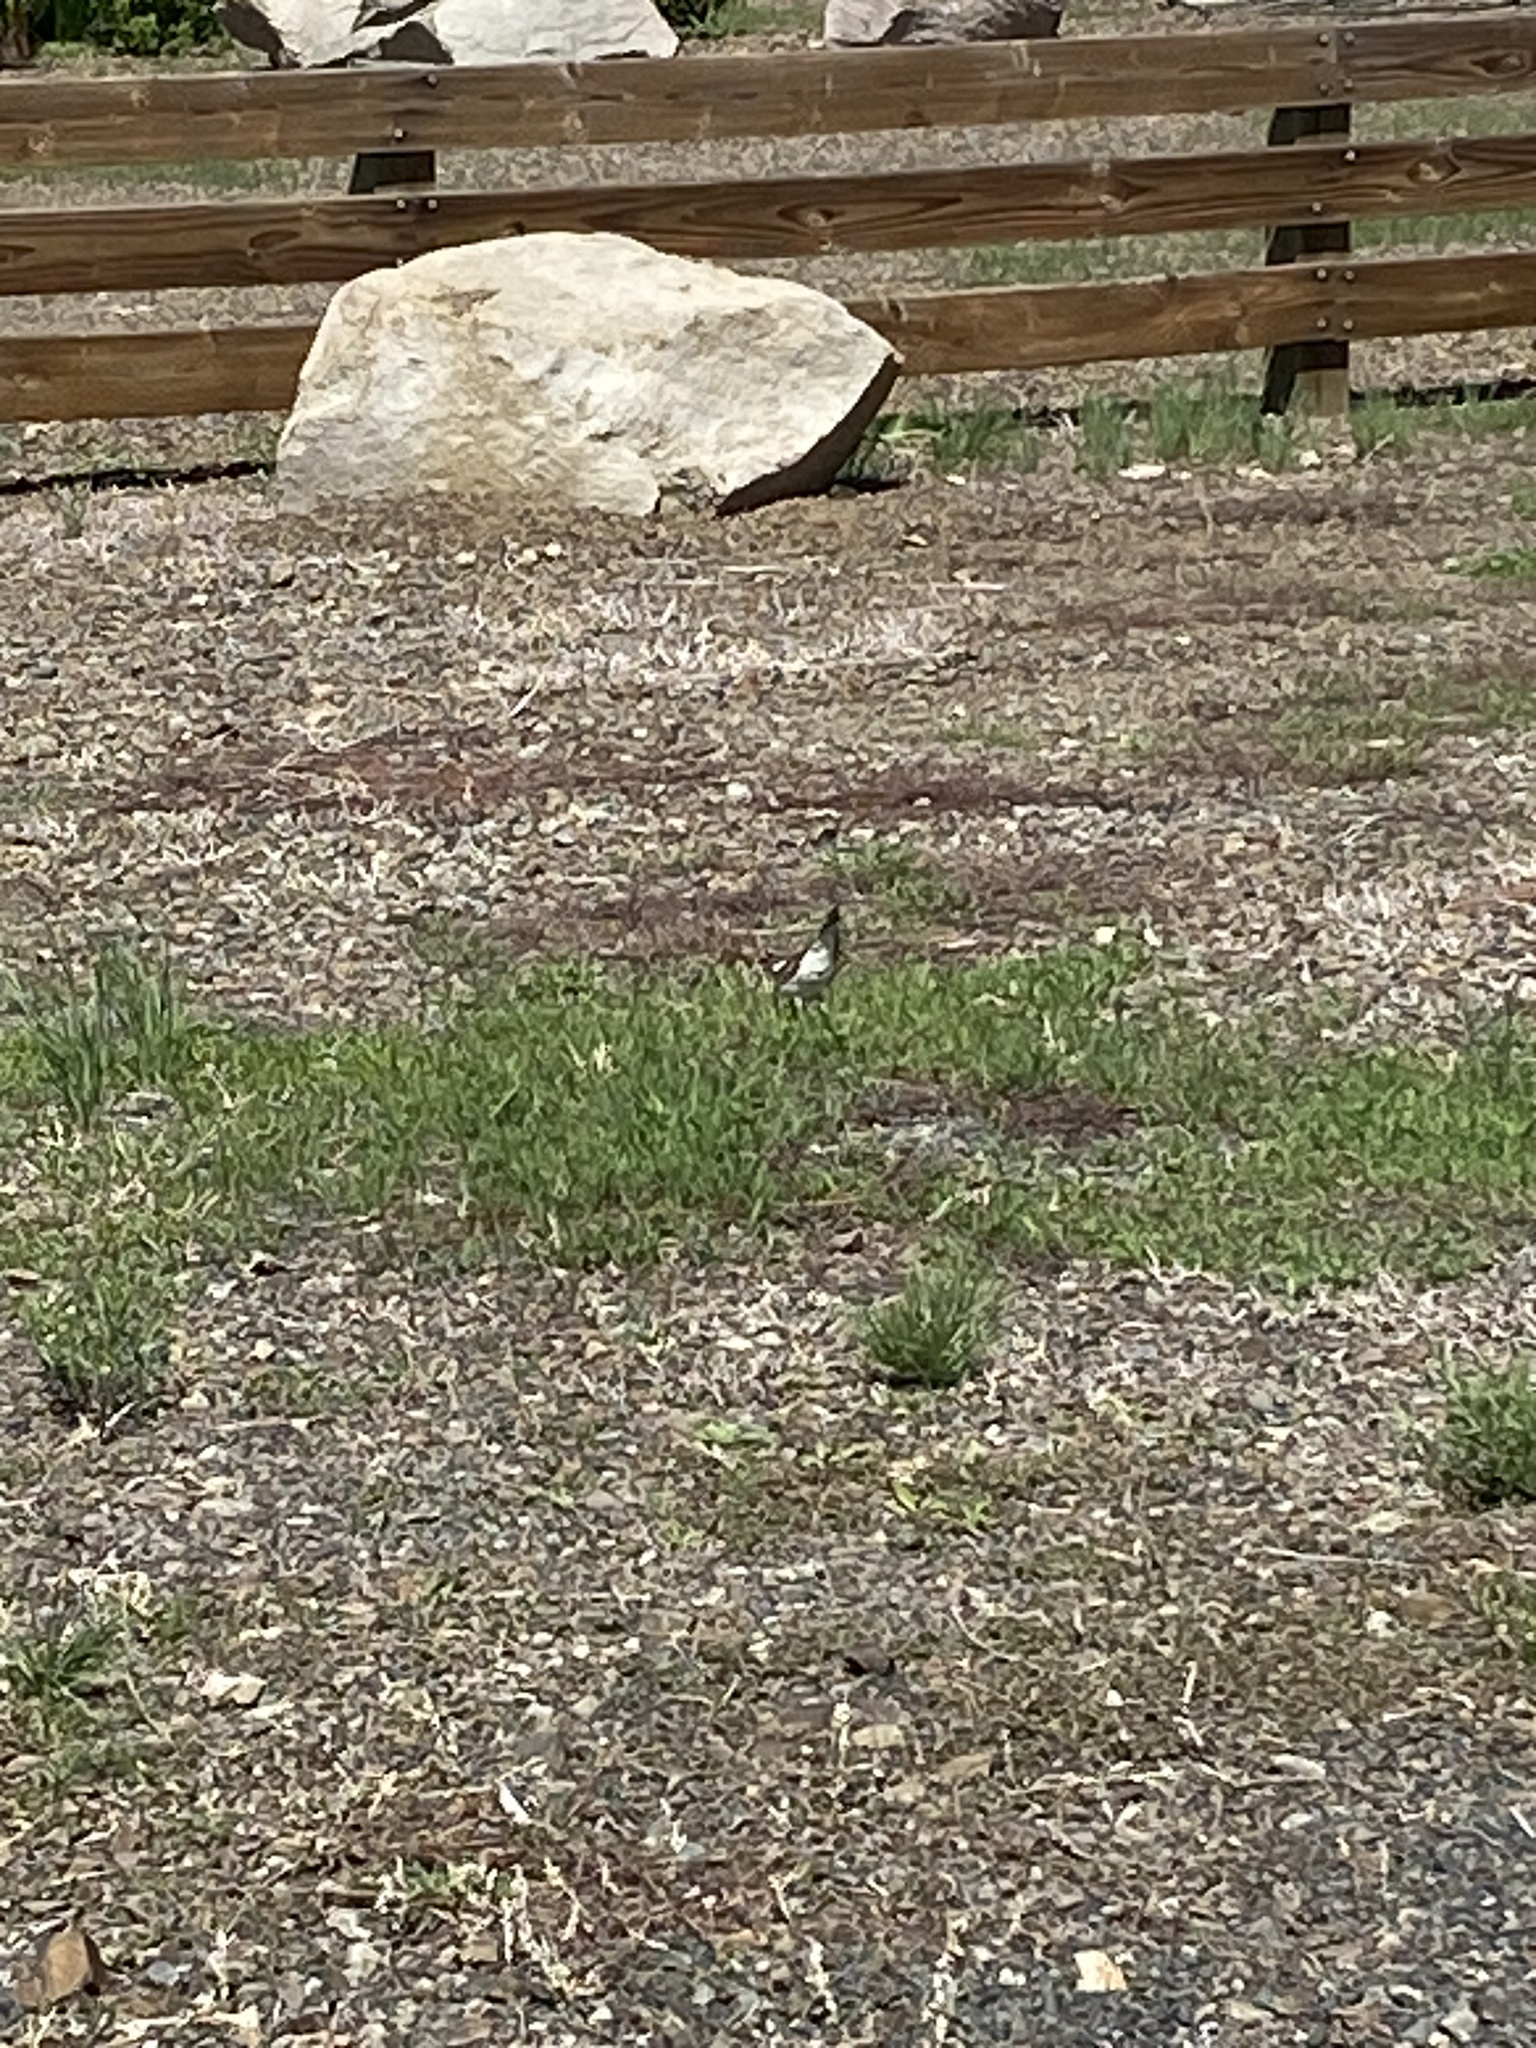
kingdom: Animalia
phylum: Chordata
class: Aves
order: Charadriiformes
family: Charadriidae
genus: Charadrius
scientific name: Charadrius vociferus
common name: Killdeer
